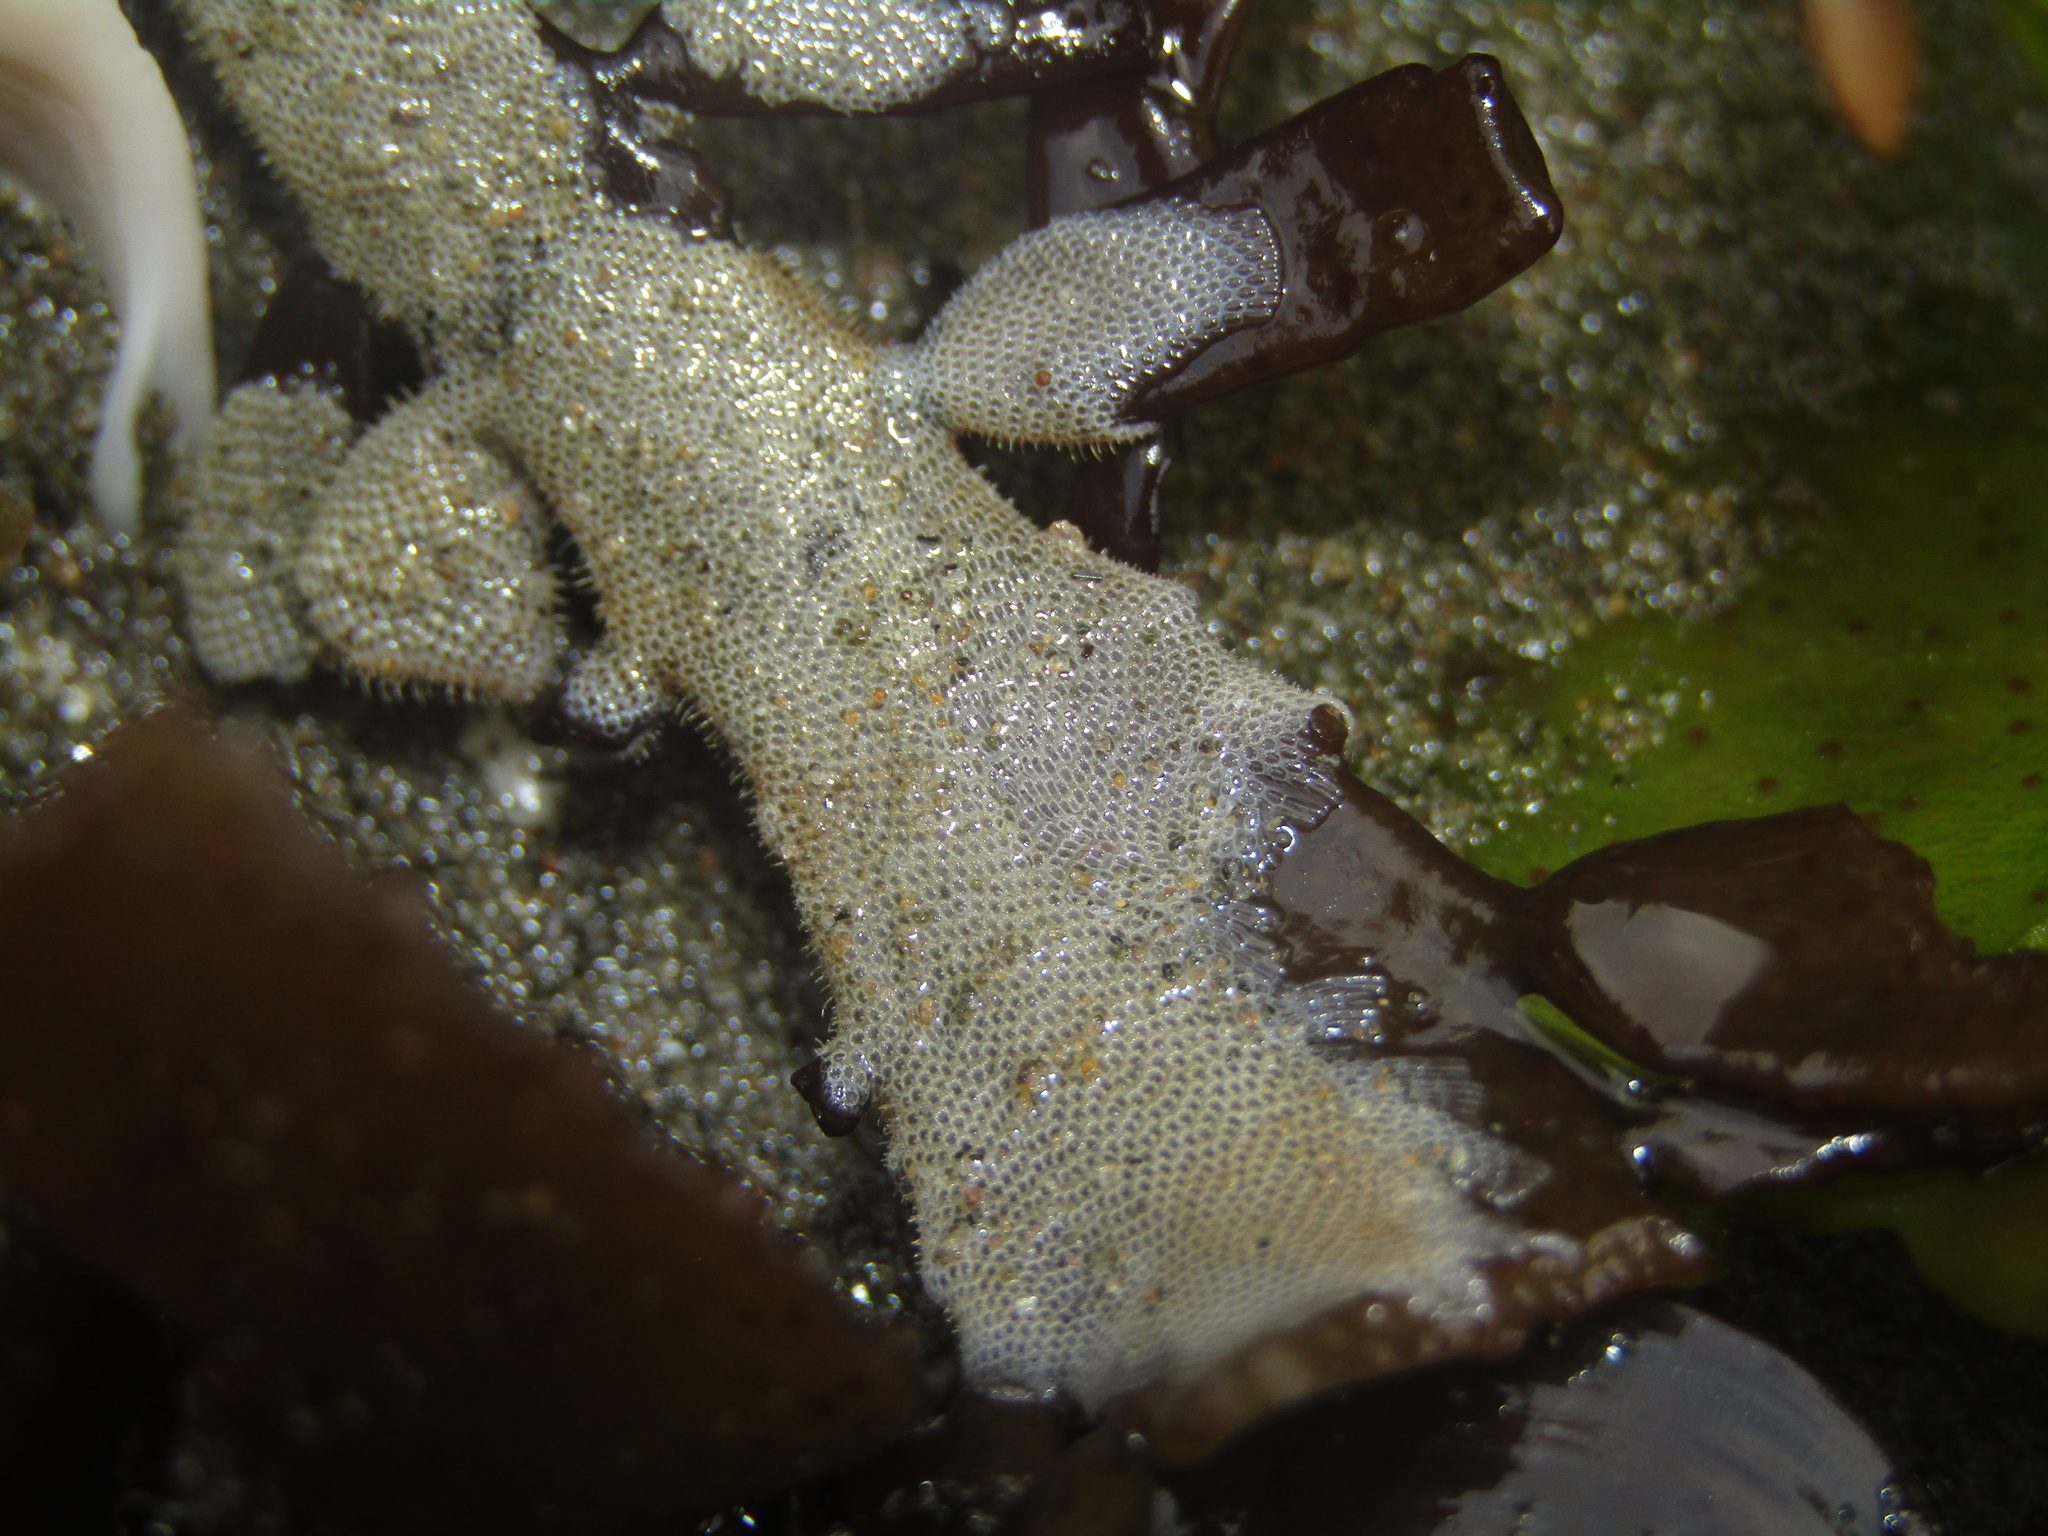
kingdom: Animalia
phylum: Bryozoa
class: Gymnolaemata
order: Cheilostomatida
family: Electridae
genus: Electra
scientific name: Electra scuticifera
